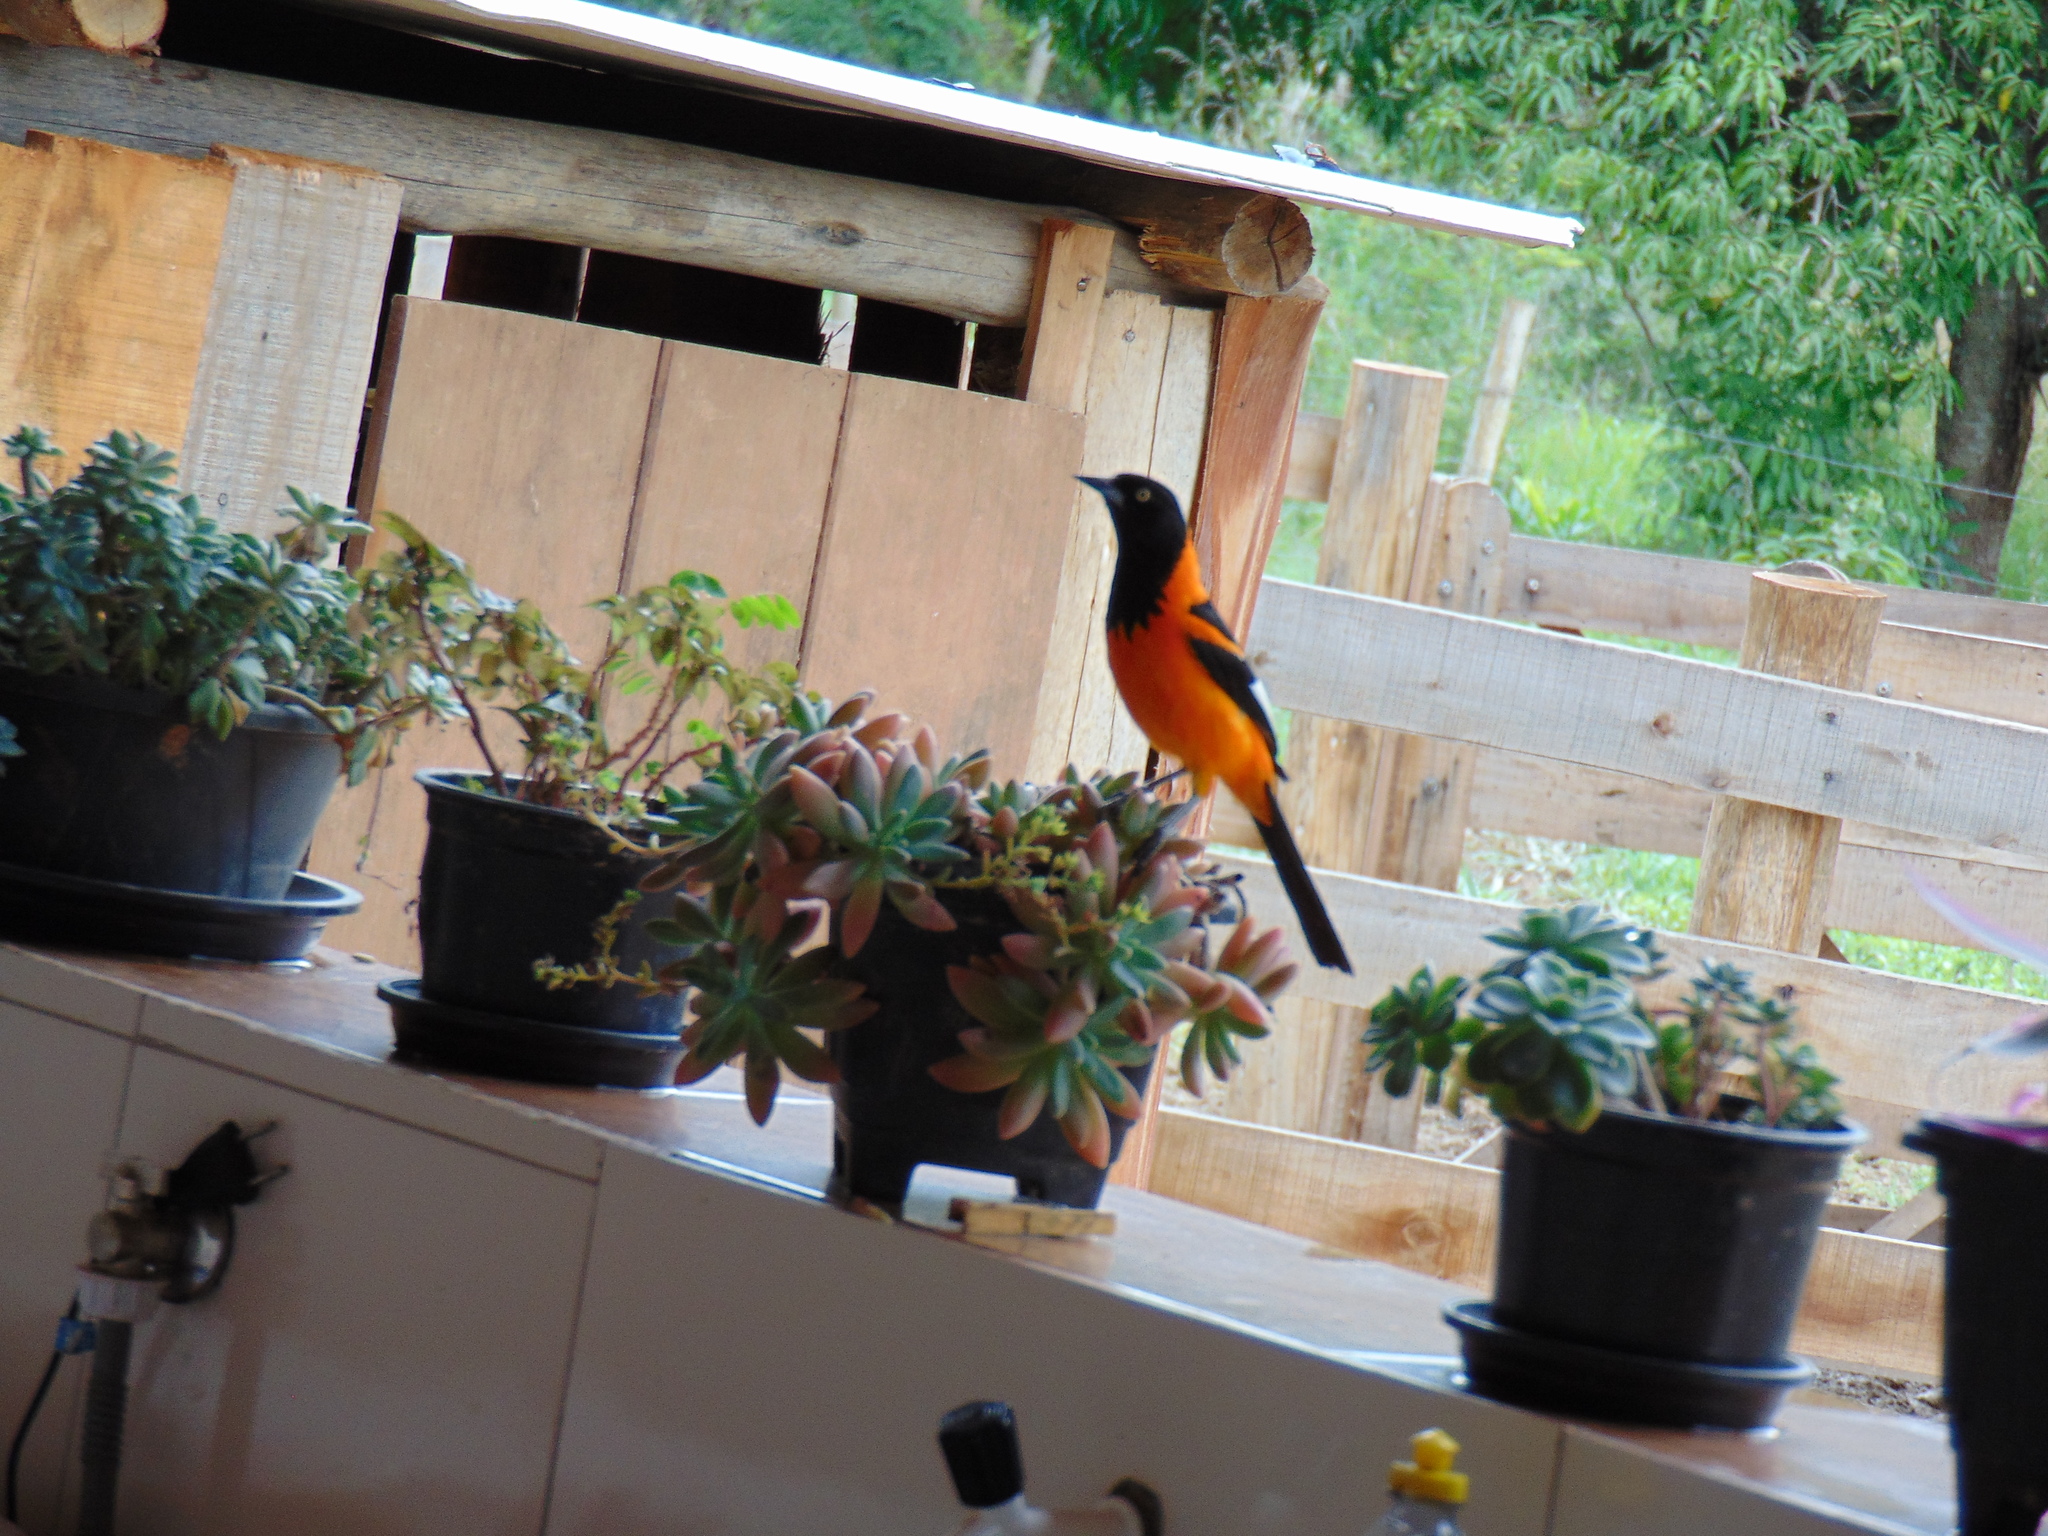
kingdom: Animalia
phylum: Chordata
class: Aves
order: Passeriformes
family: Icteridae
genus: Icterus
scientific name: Icterus icterus
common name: Venezuelan troupial
